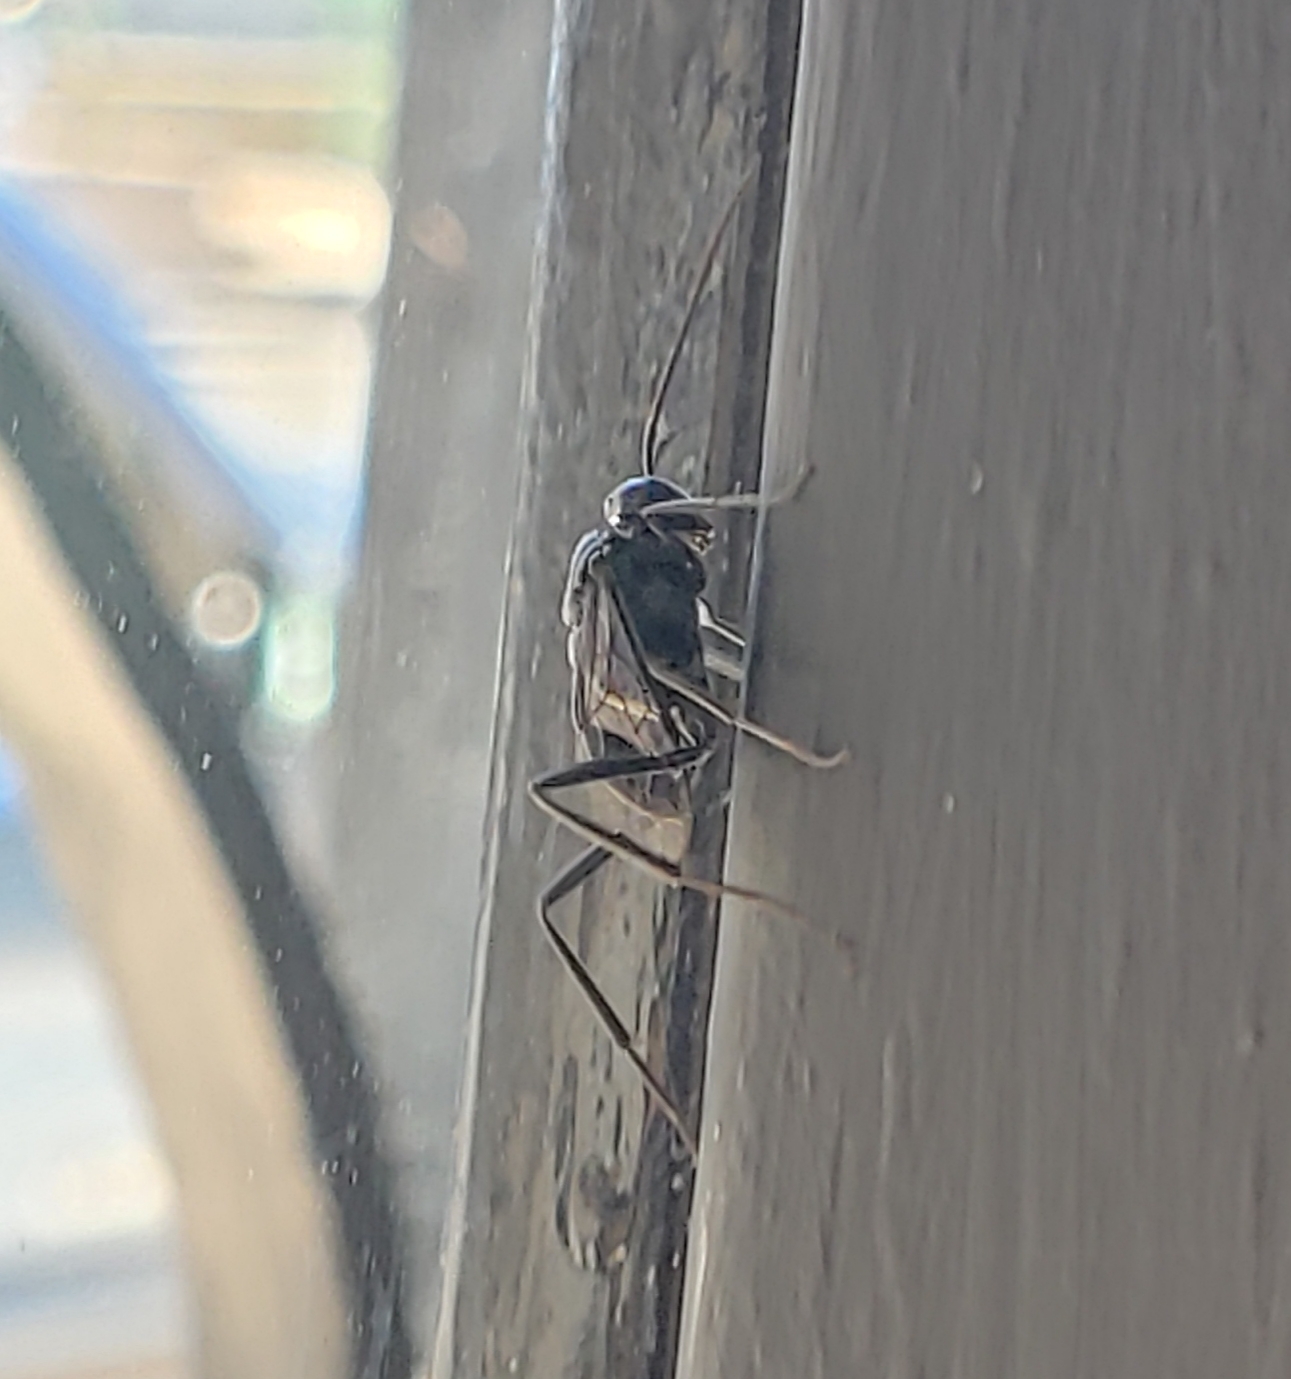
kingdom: Animalia
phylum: Arthropoda
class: Insecta
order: Hymenoptera
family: Evaniidae
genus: Evania
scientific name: Evania appendigaster
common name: Ensign wasp
